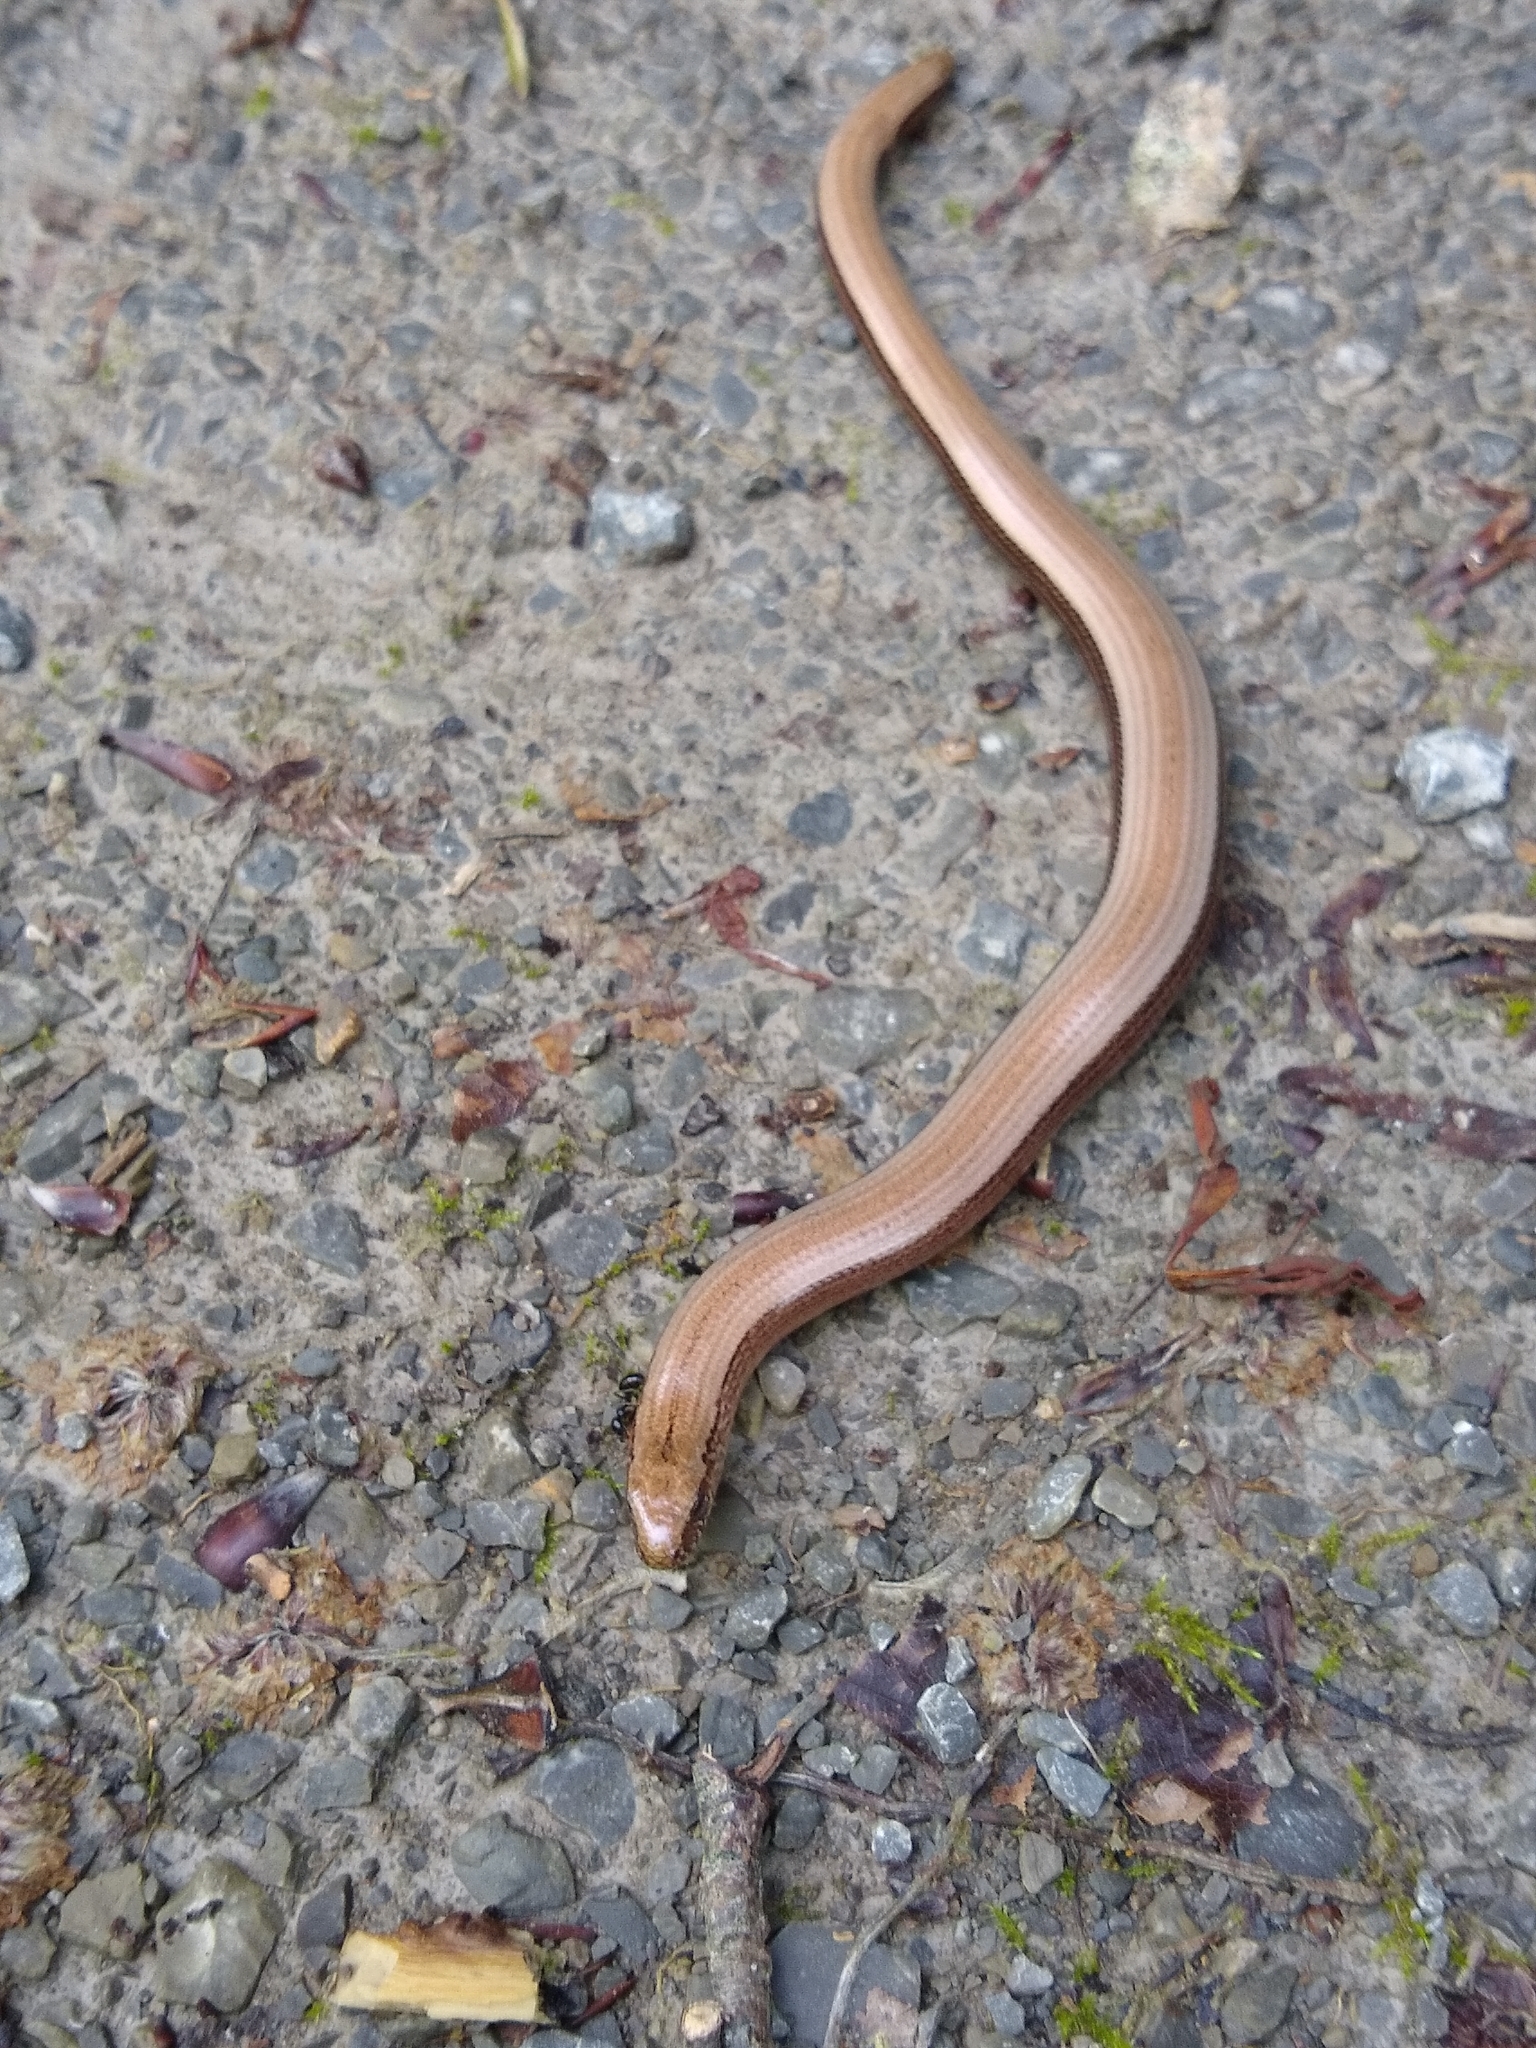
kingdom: Animalia
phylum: Chordata
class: Squamata
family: Anguidae
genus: Anguis
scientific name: Anguis fragilis
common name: Slow worm
